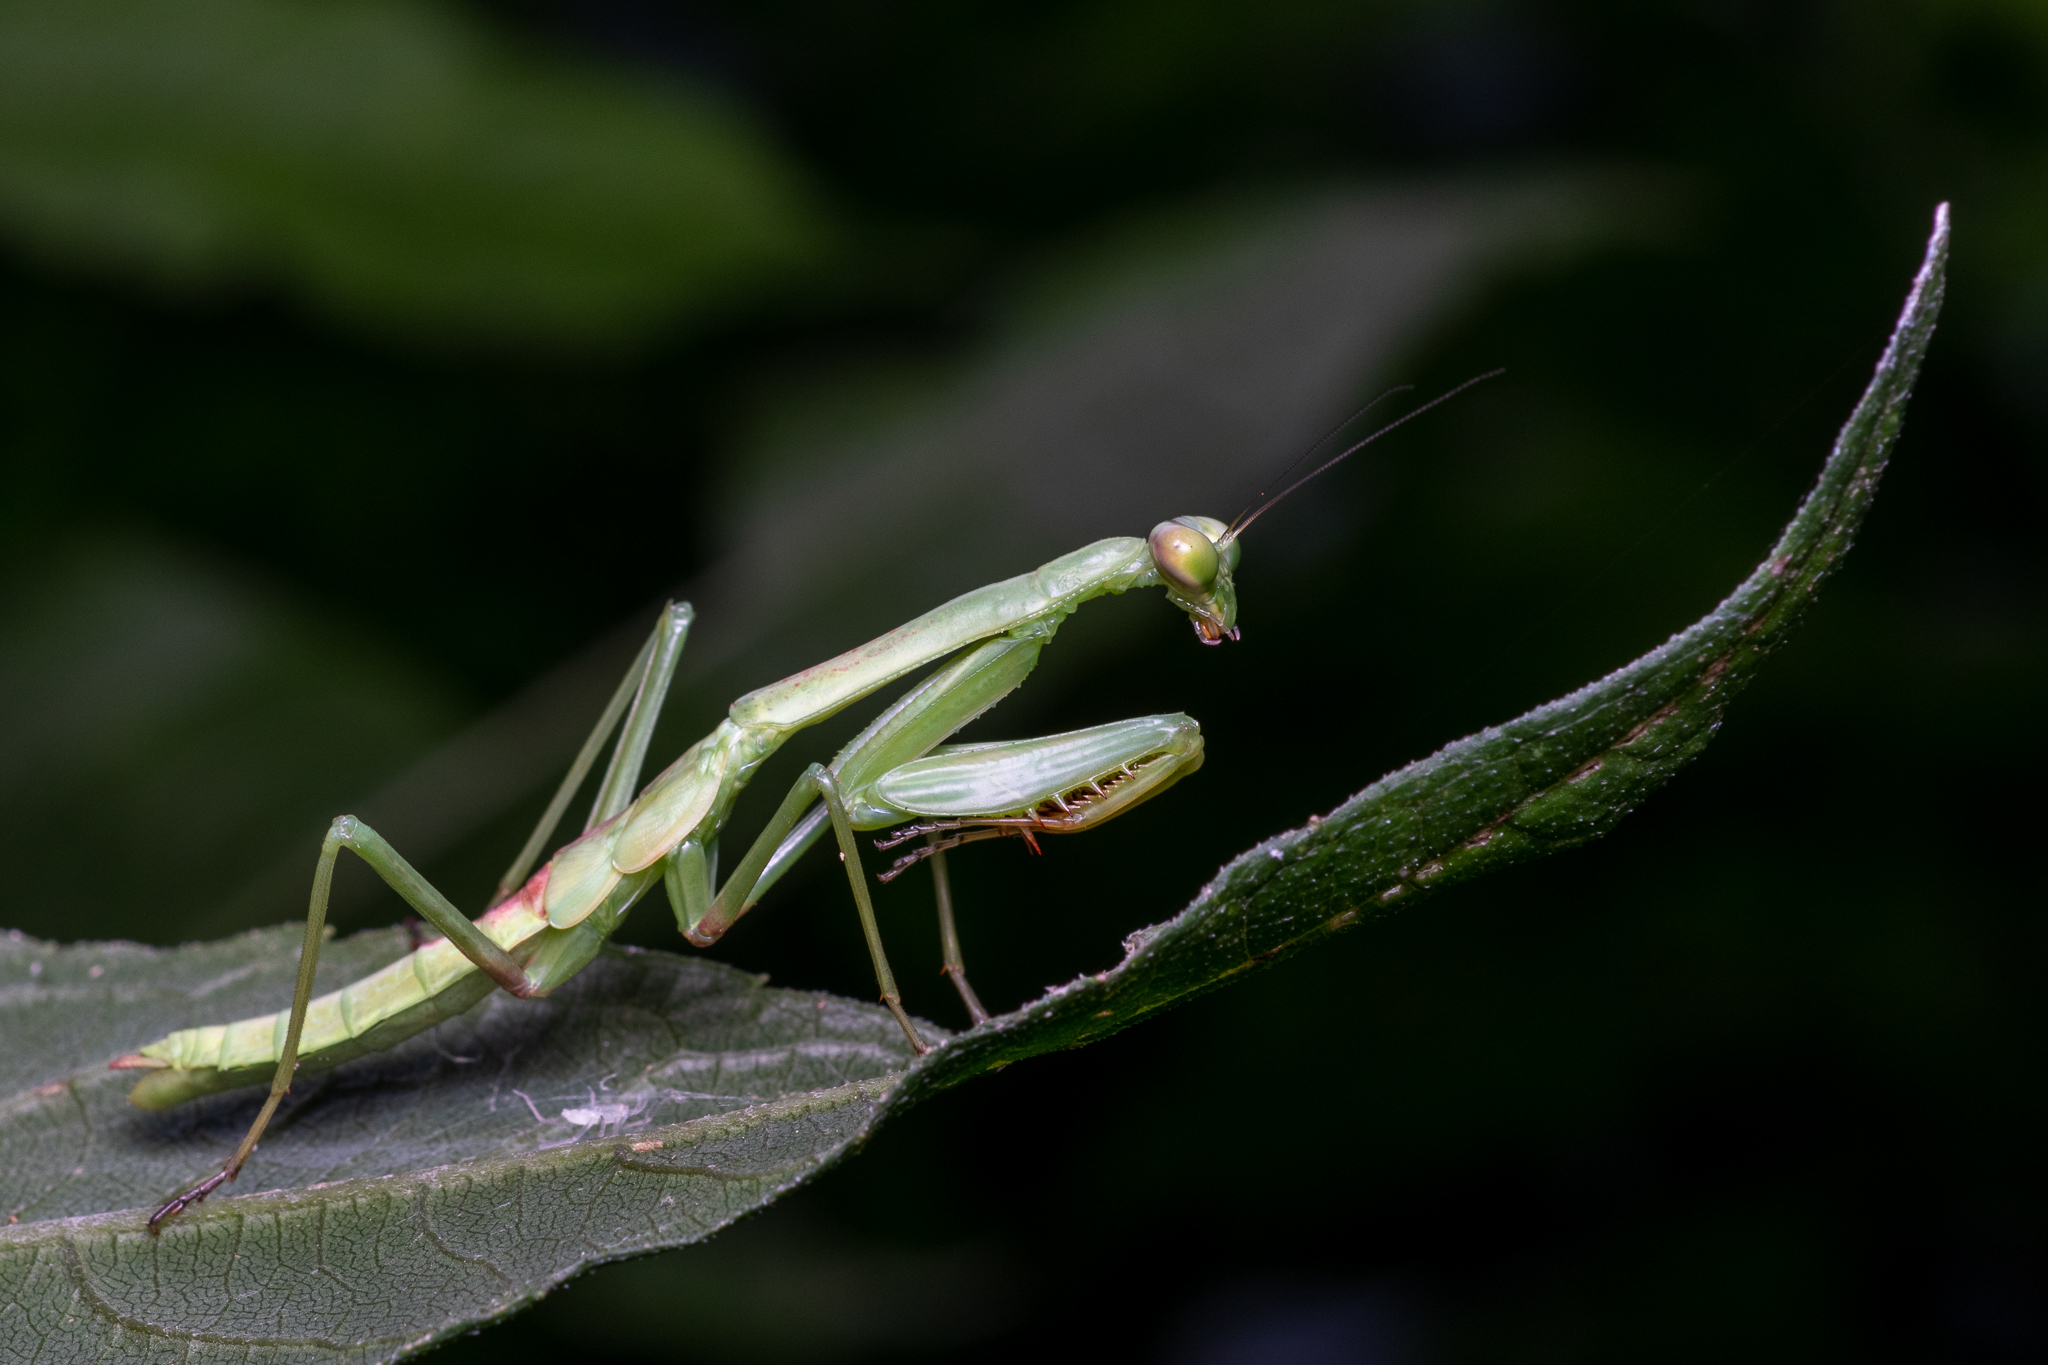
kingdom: Animalia
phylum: Arthropoda
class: Insecta
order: Mantodea
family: Mantidae
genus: Stagmomantis
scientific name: Stagmomantis carolina
